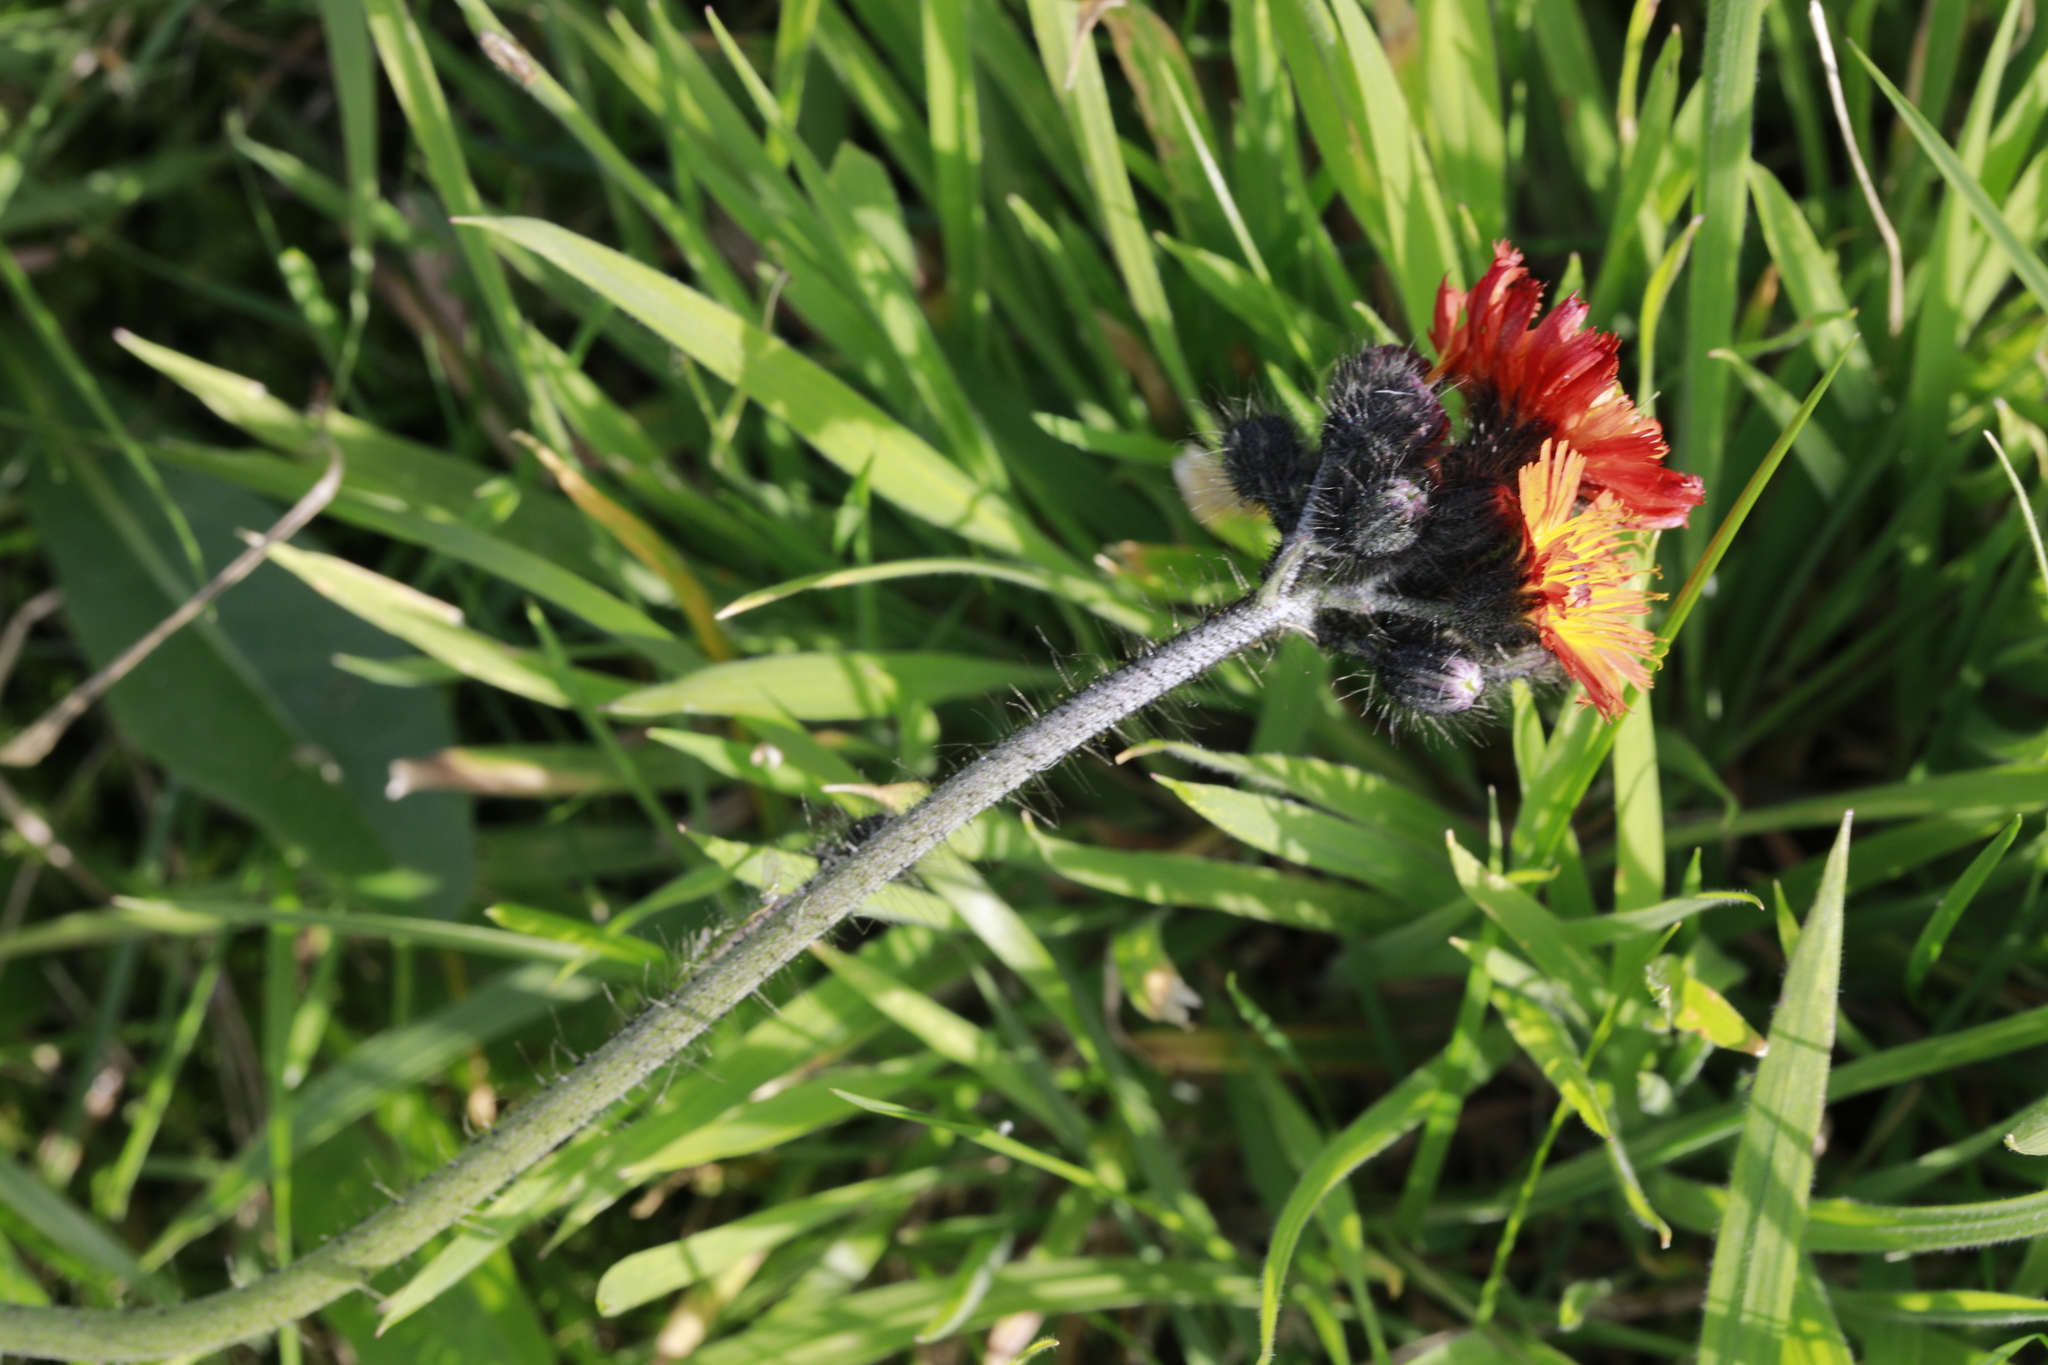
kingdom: Plantae
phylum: Tracheophyta
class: Magnoliopsida
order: Asterales
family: Asteraceae
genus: Pilosella
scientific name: Pilosella aurantiaca
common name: Fox-and-cubs
